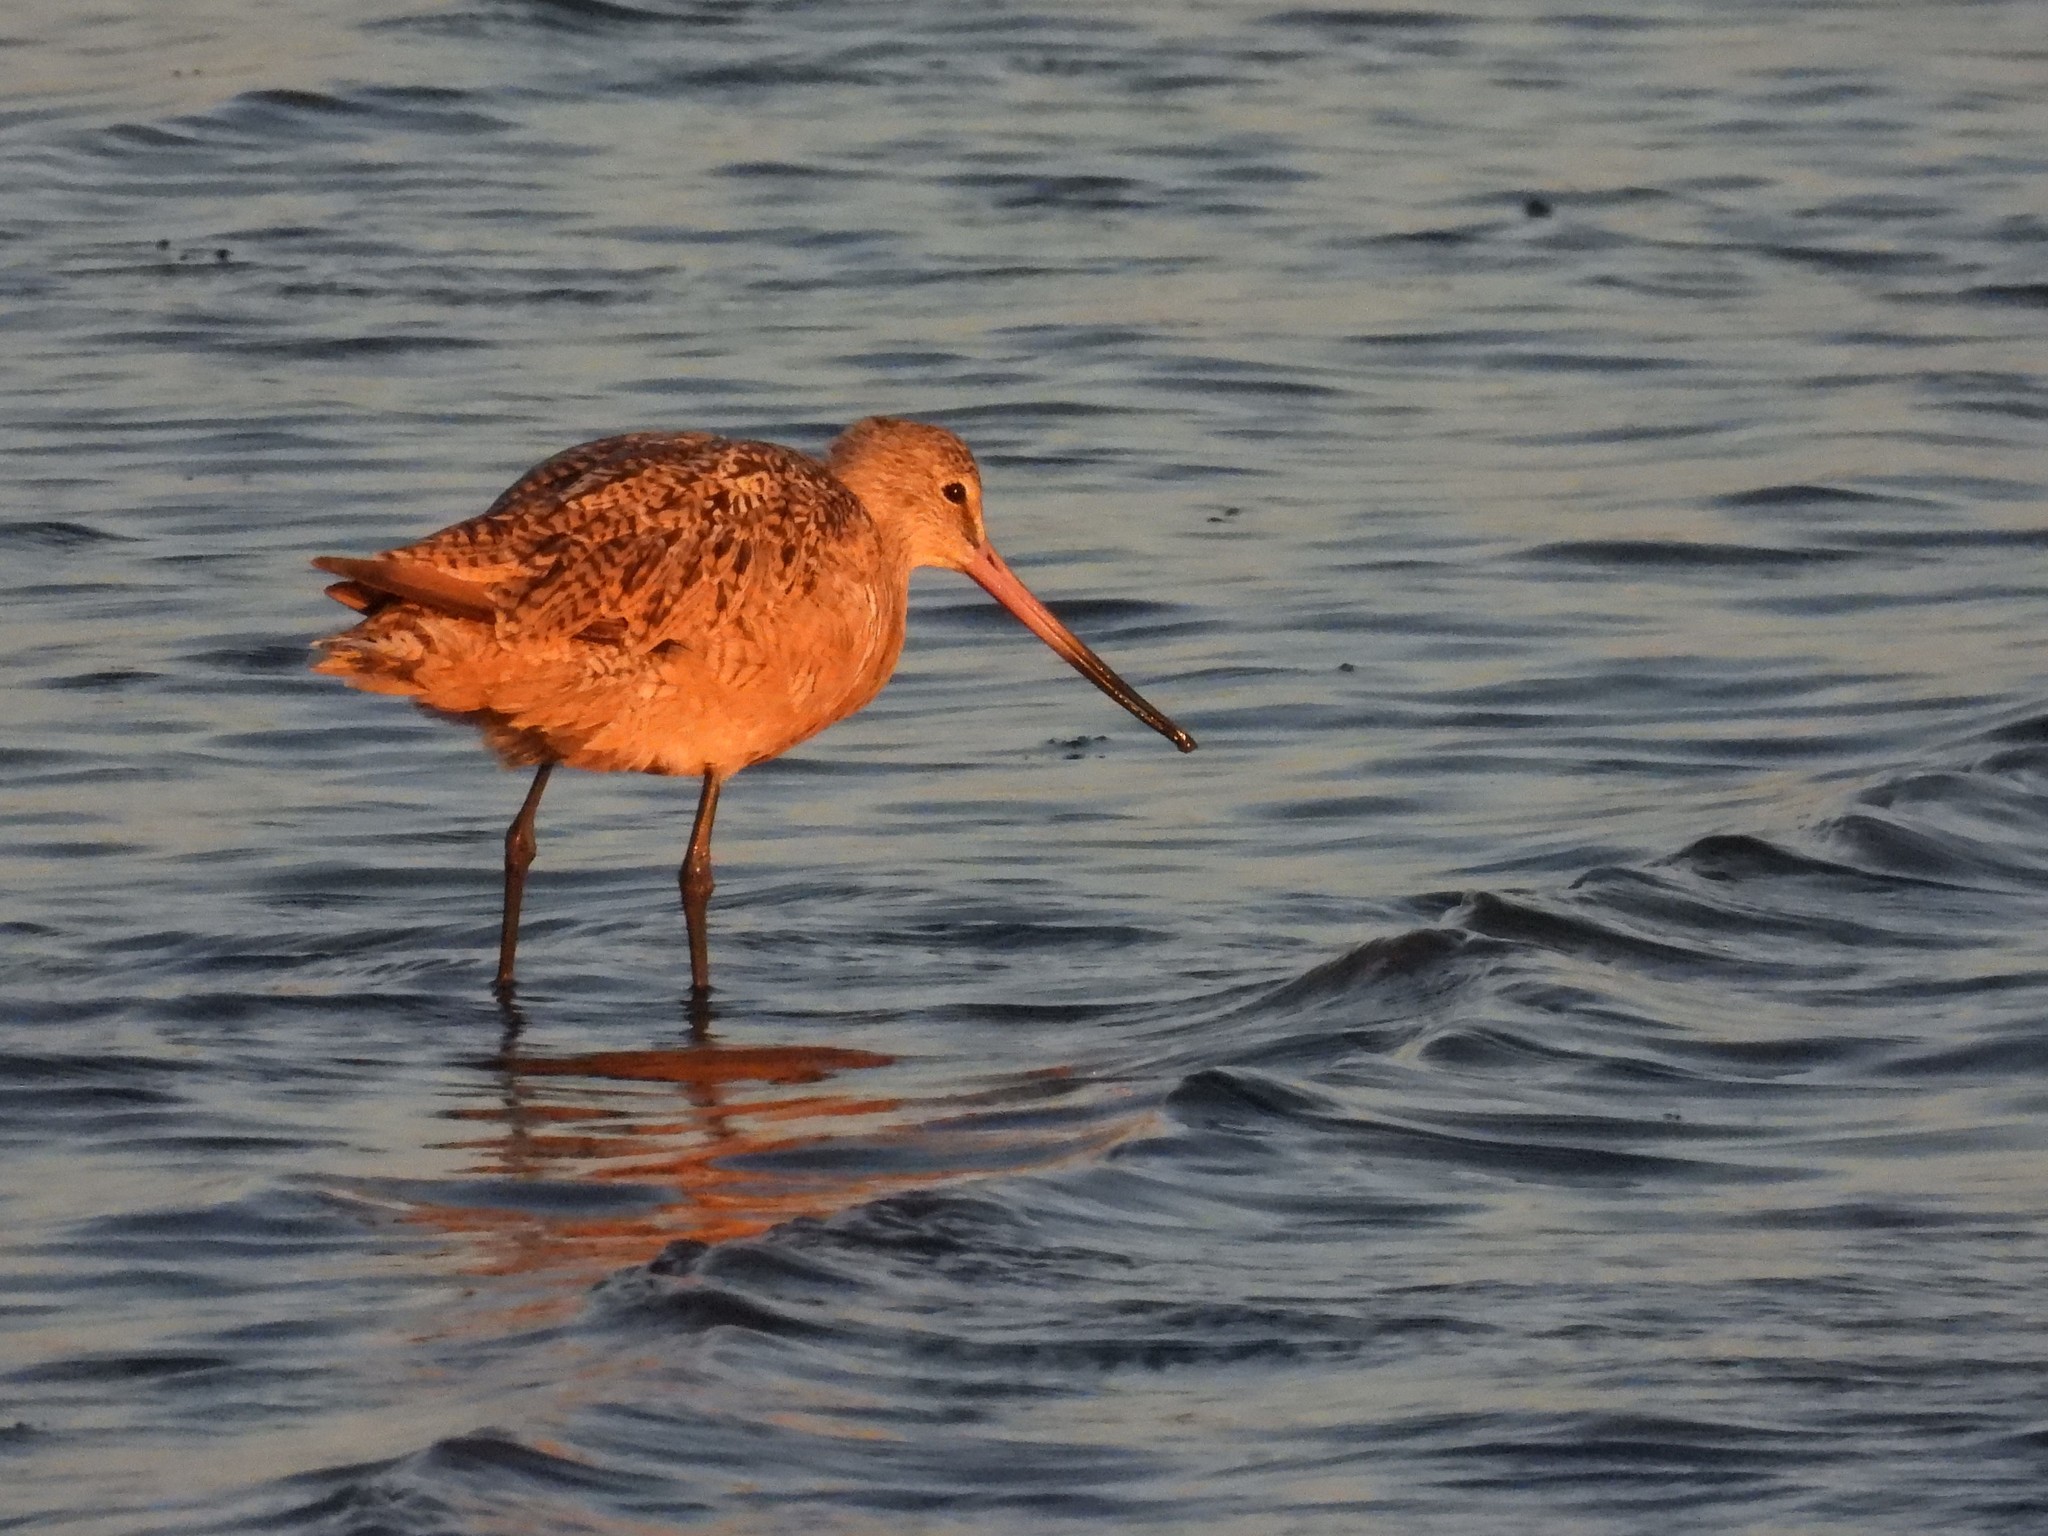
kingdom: Animalia
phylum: Chordata
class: Aves
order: Charadriiformes
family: Scolopacidae
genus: Limosa
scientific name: Limosa fedoa
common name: Marbled godwit
